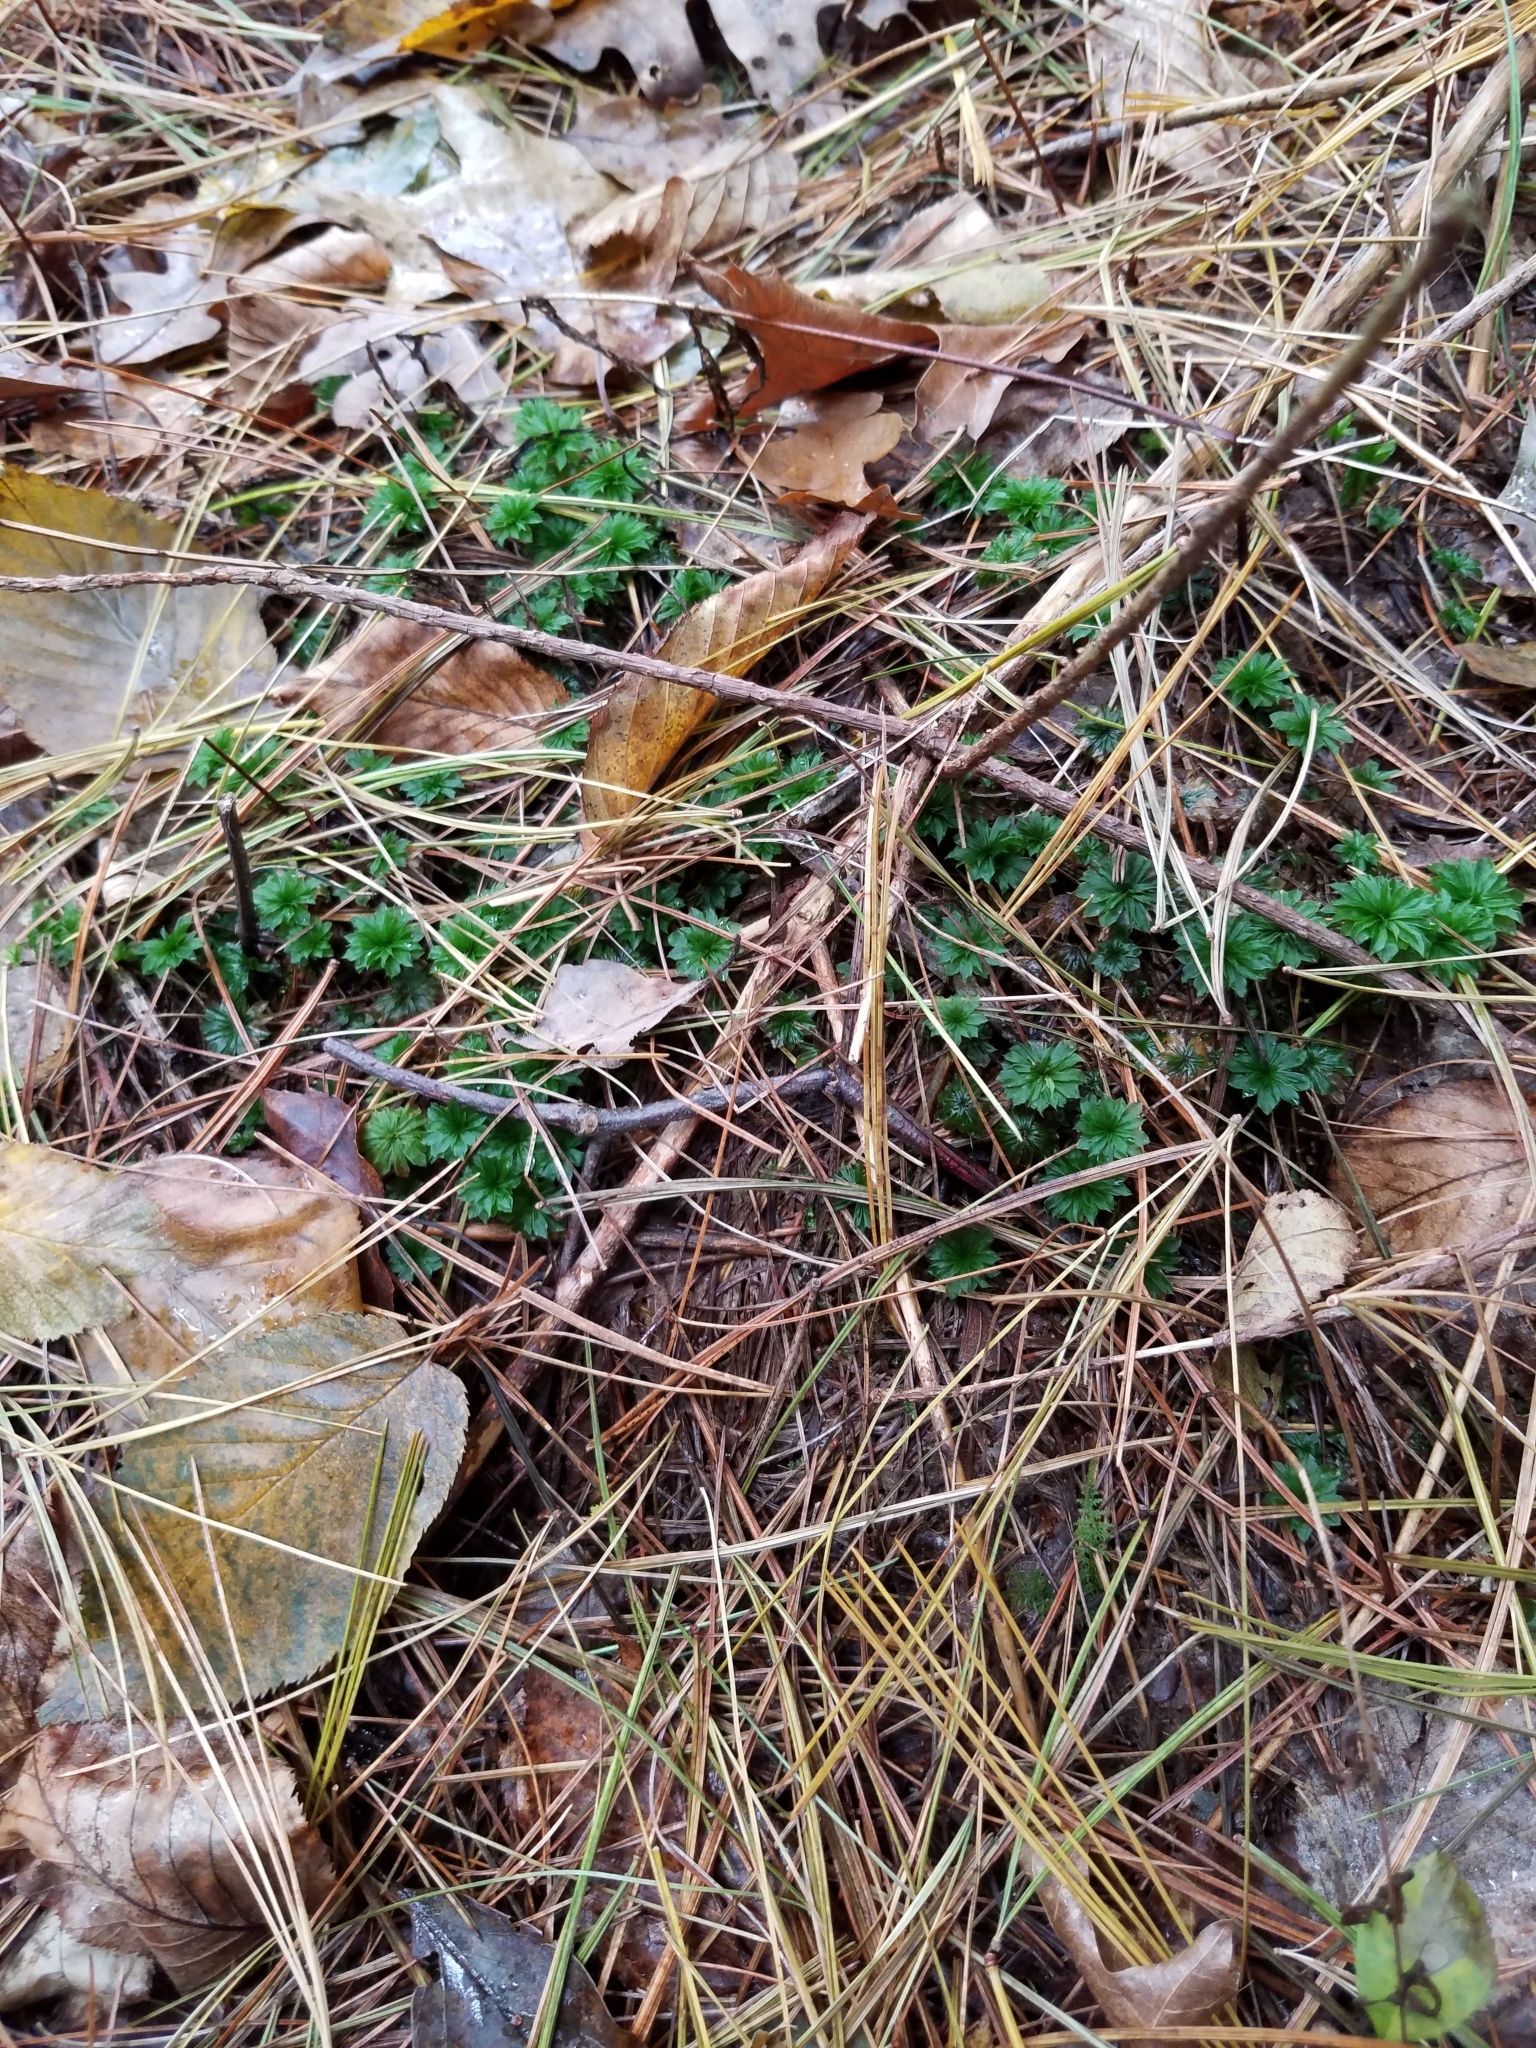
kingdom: Plantae
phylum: Bryophyta
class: Bryopsida
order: Bryales
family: Bryaceae
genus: Rhodobryum
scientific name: Rhodobryum ontariense
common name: Ontario rhodobryum moss
